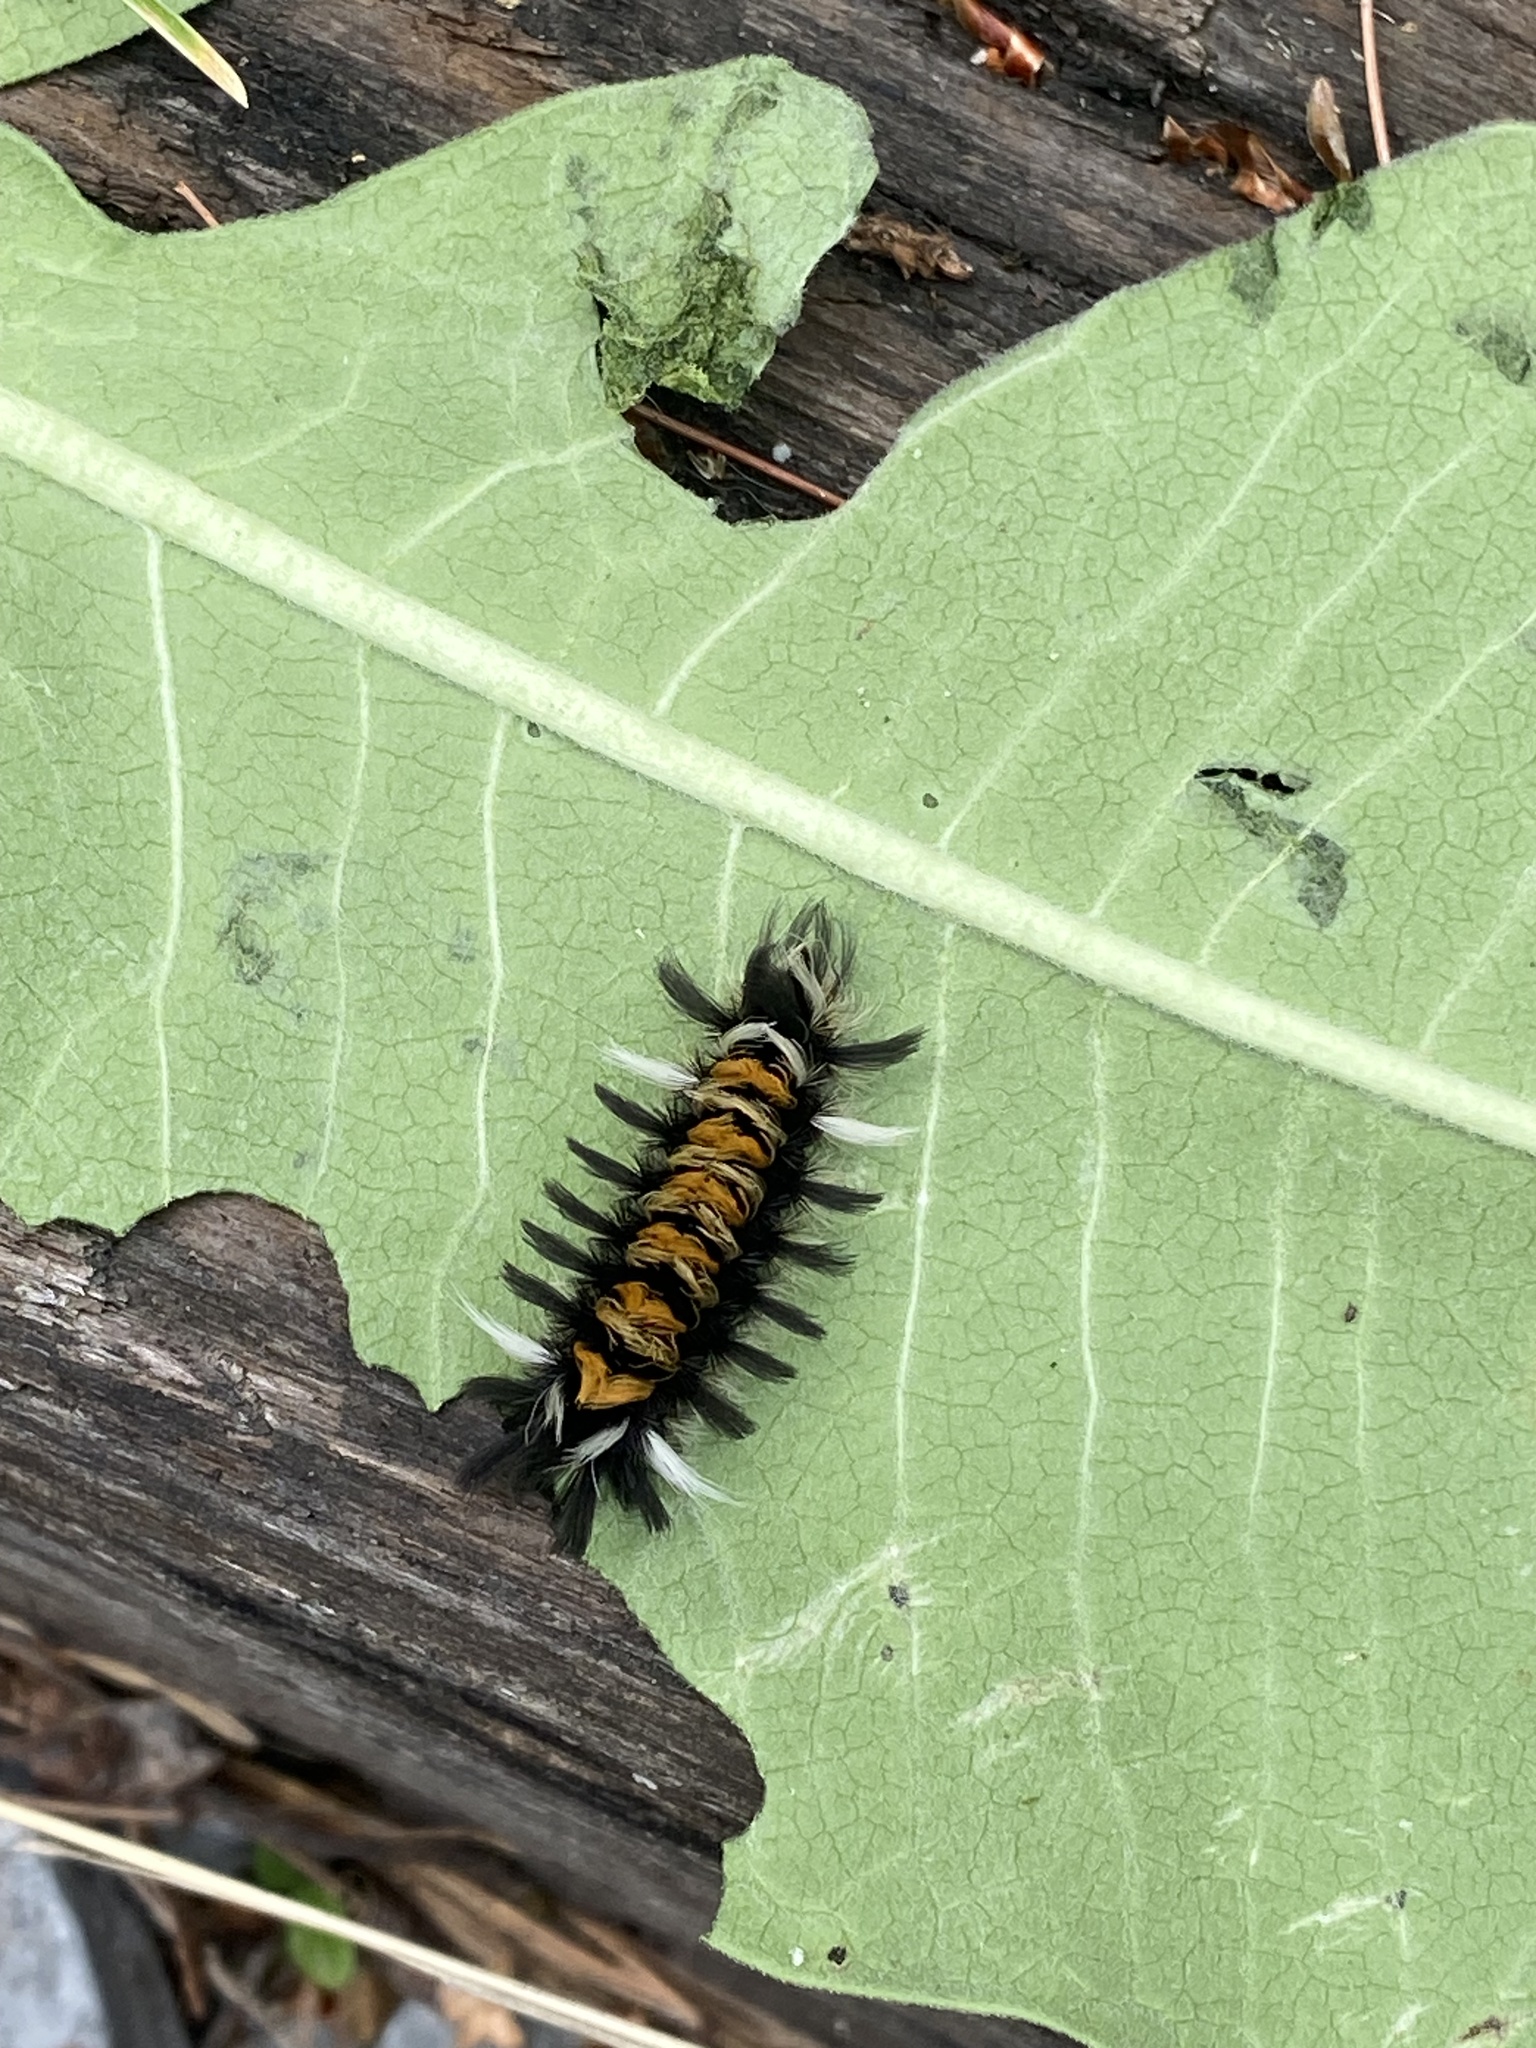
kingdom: Animalia
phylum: Arthropoda
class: Insecta
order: Lepidoptera
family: Erebidae
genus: Euchaetes
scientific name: Euchaetes egle
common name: Milkweed tussock moth
